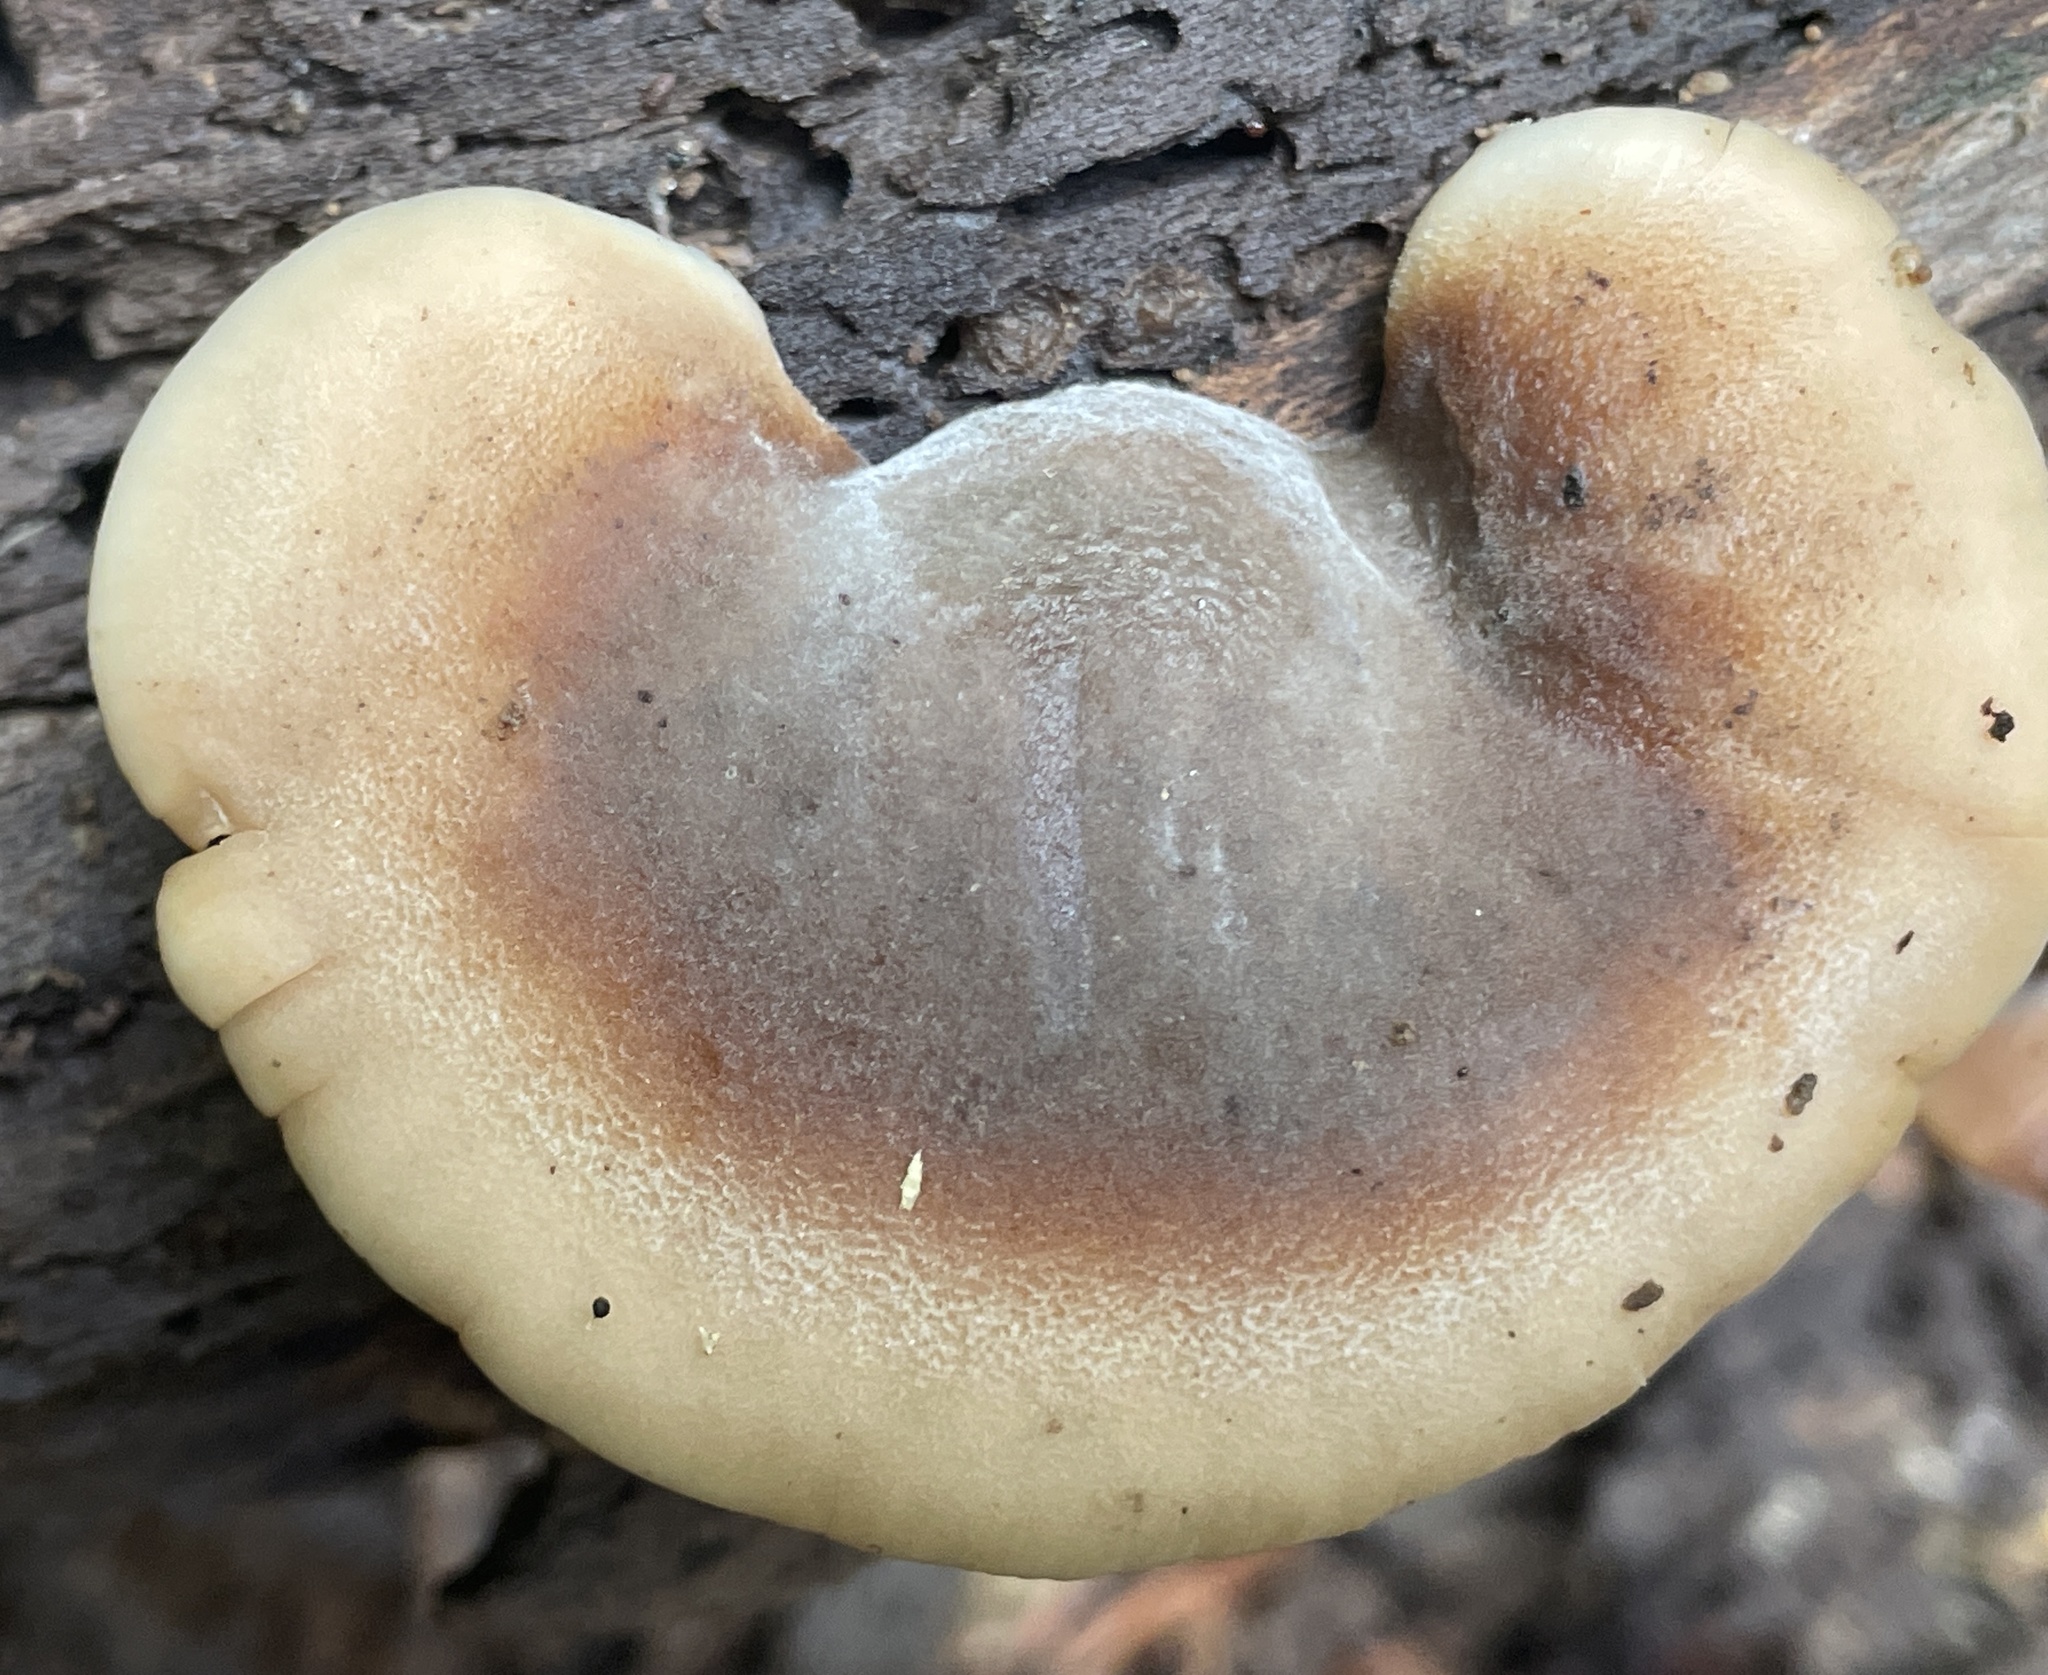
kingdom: Fungi
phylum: Basidiomycota
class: Agaricomycetes
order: Russulales
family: Auriscalpiaceae
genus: Lentinellus
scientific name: Lentinellus ursinus
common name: Bear lentinus
